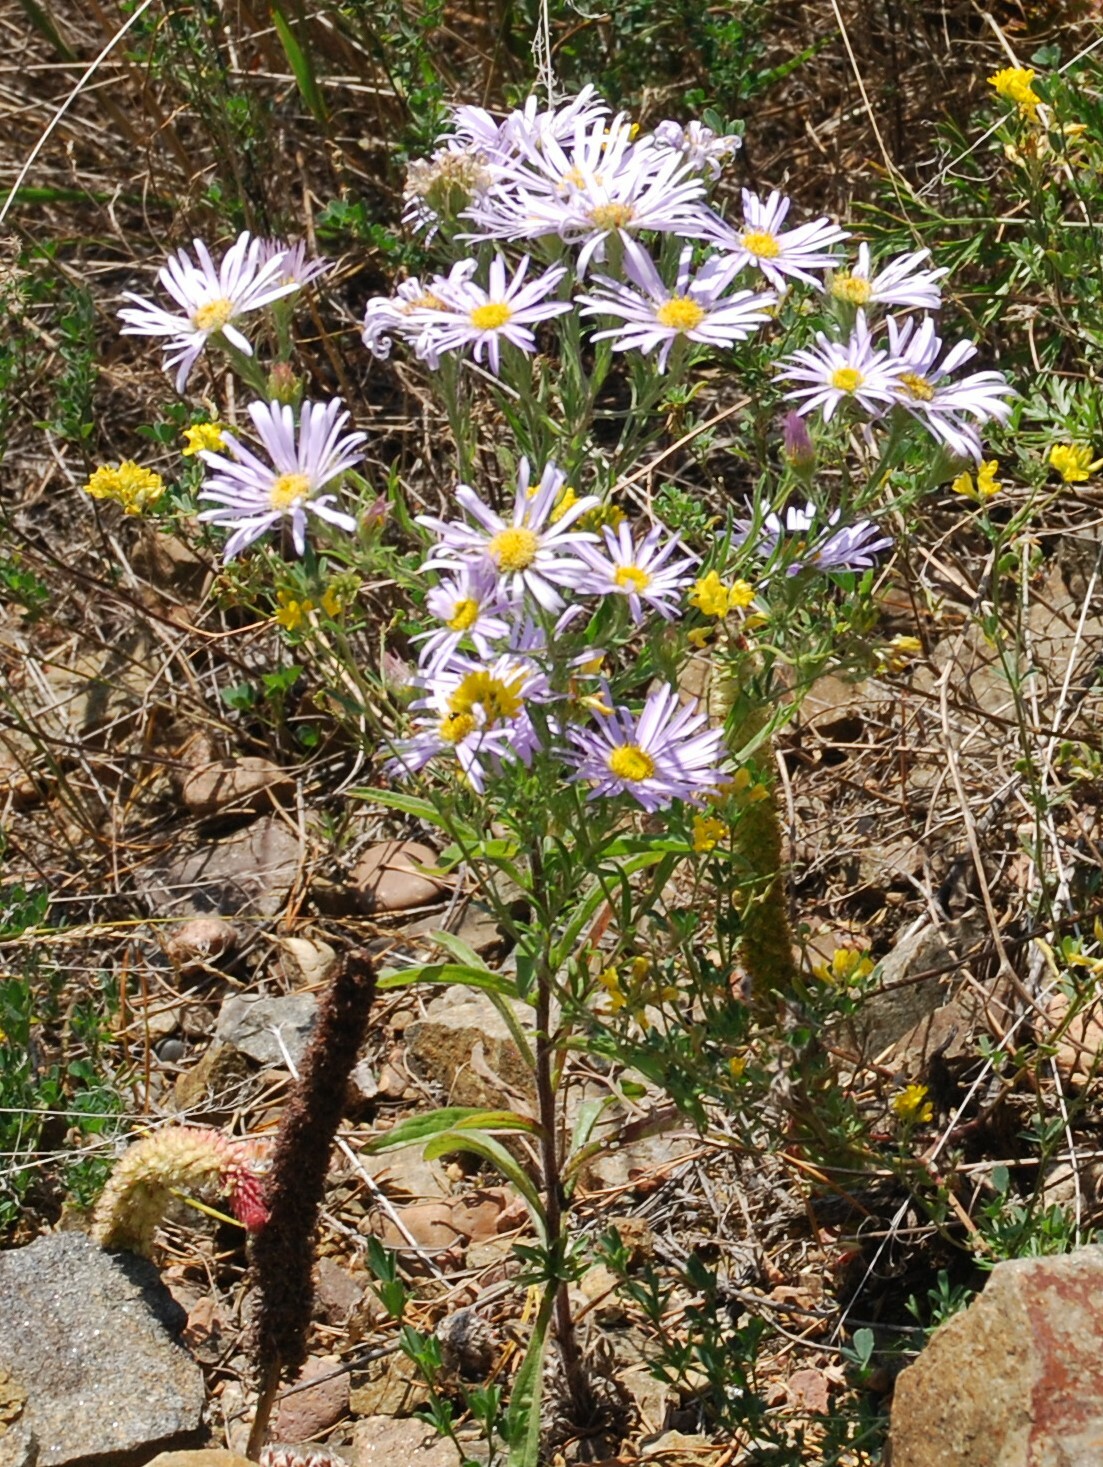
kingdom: Plantae
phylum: Tracheophyta
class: Magnoliopsida
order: Asterales
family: Asteraceae
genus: Aster
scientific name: Aster biennis
